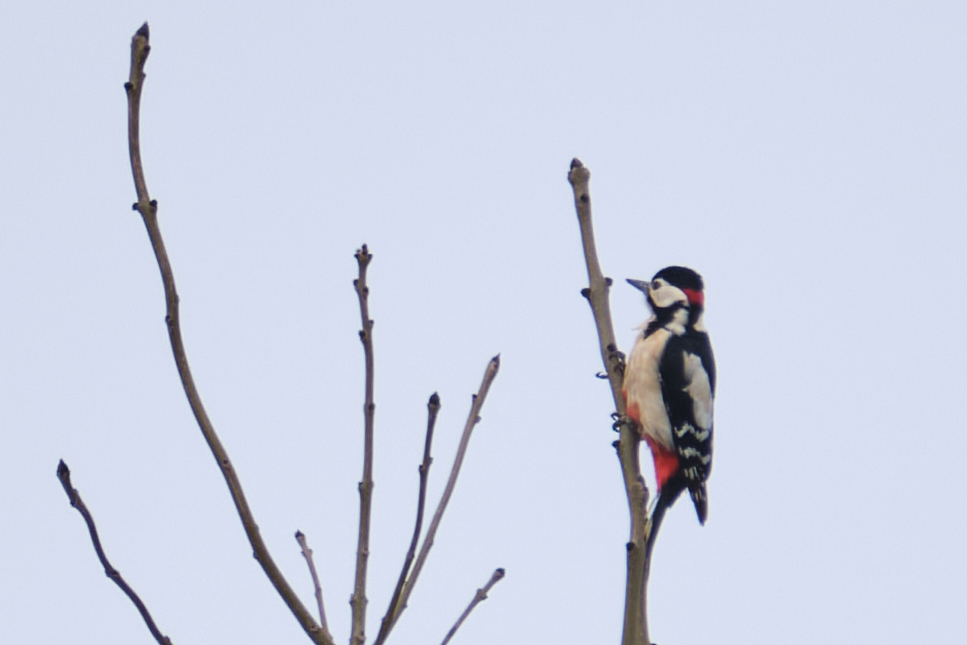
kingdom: Animalia
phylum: Chordata
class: Aves
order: Piciformes
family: Picidae
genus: Dendrocopos
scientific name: Dendrocopos major
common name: Great spotted woodpecker
